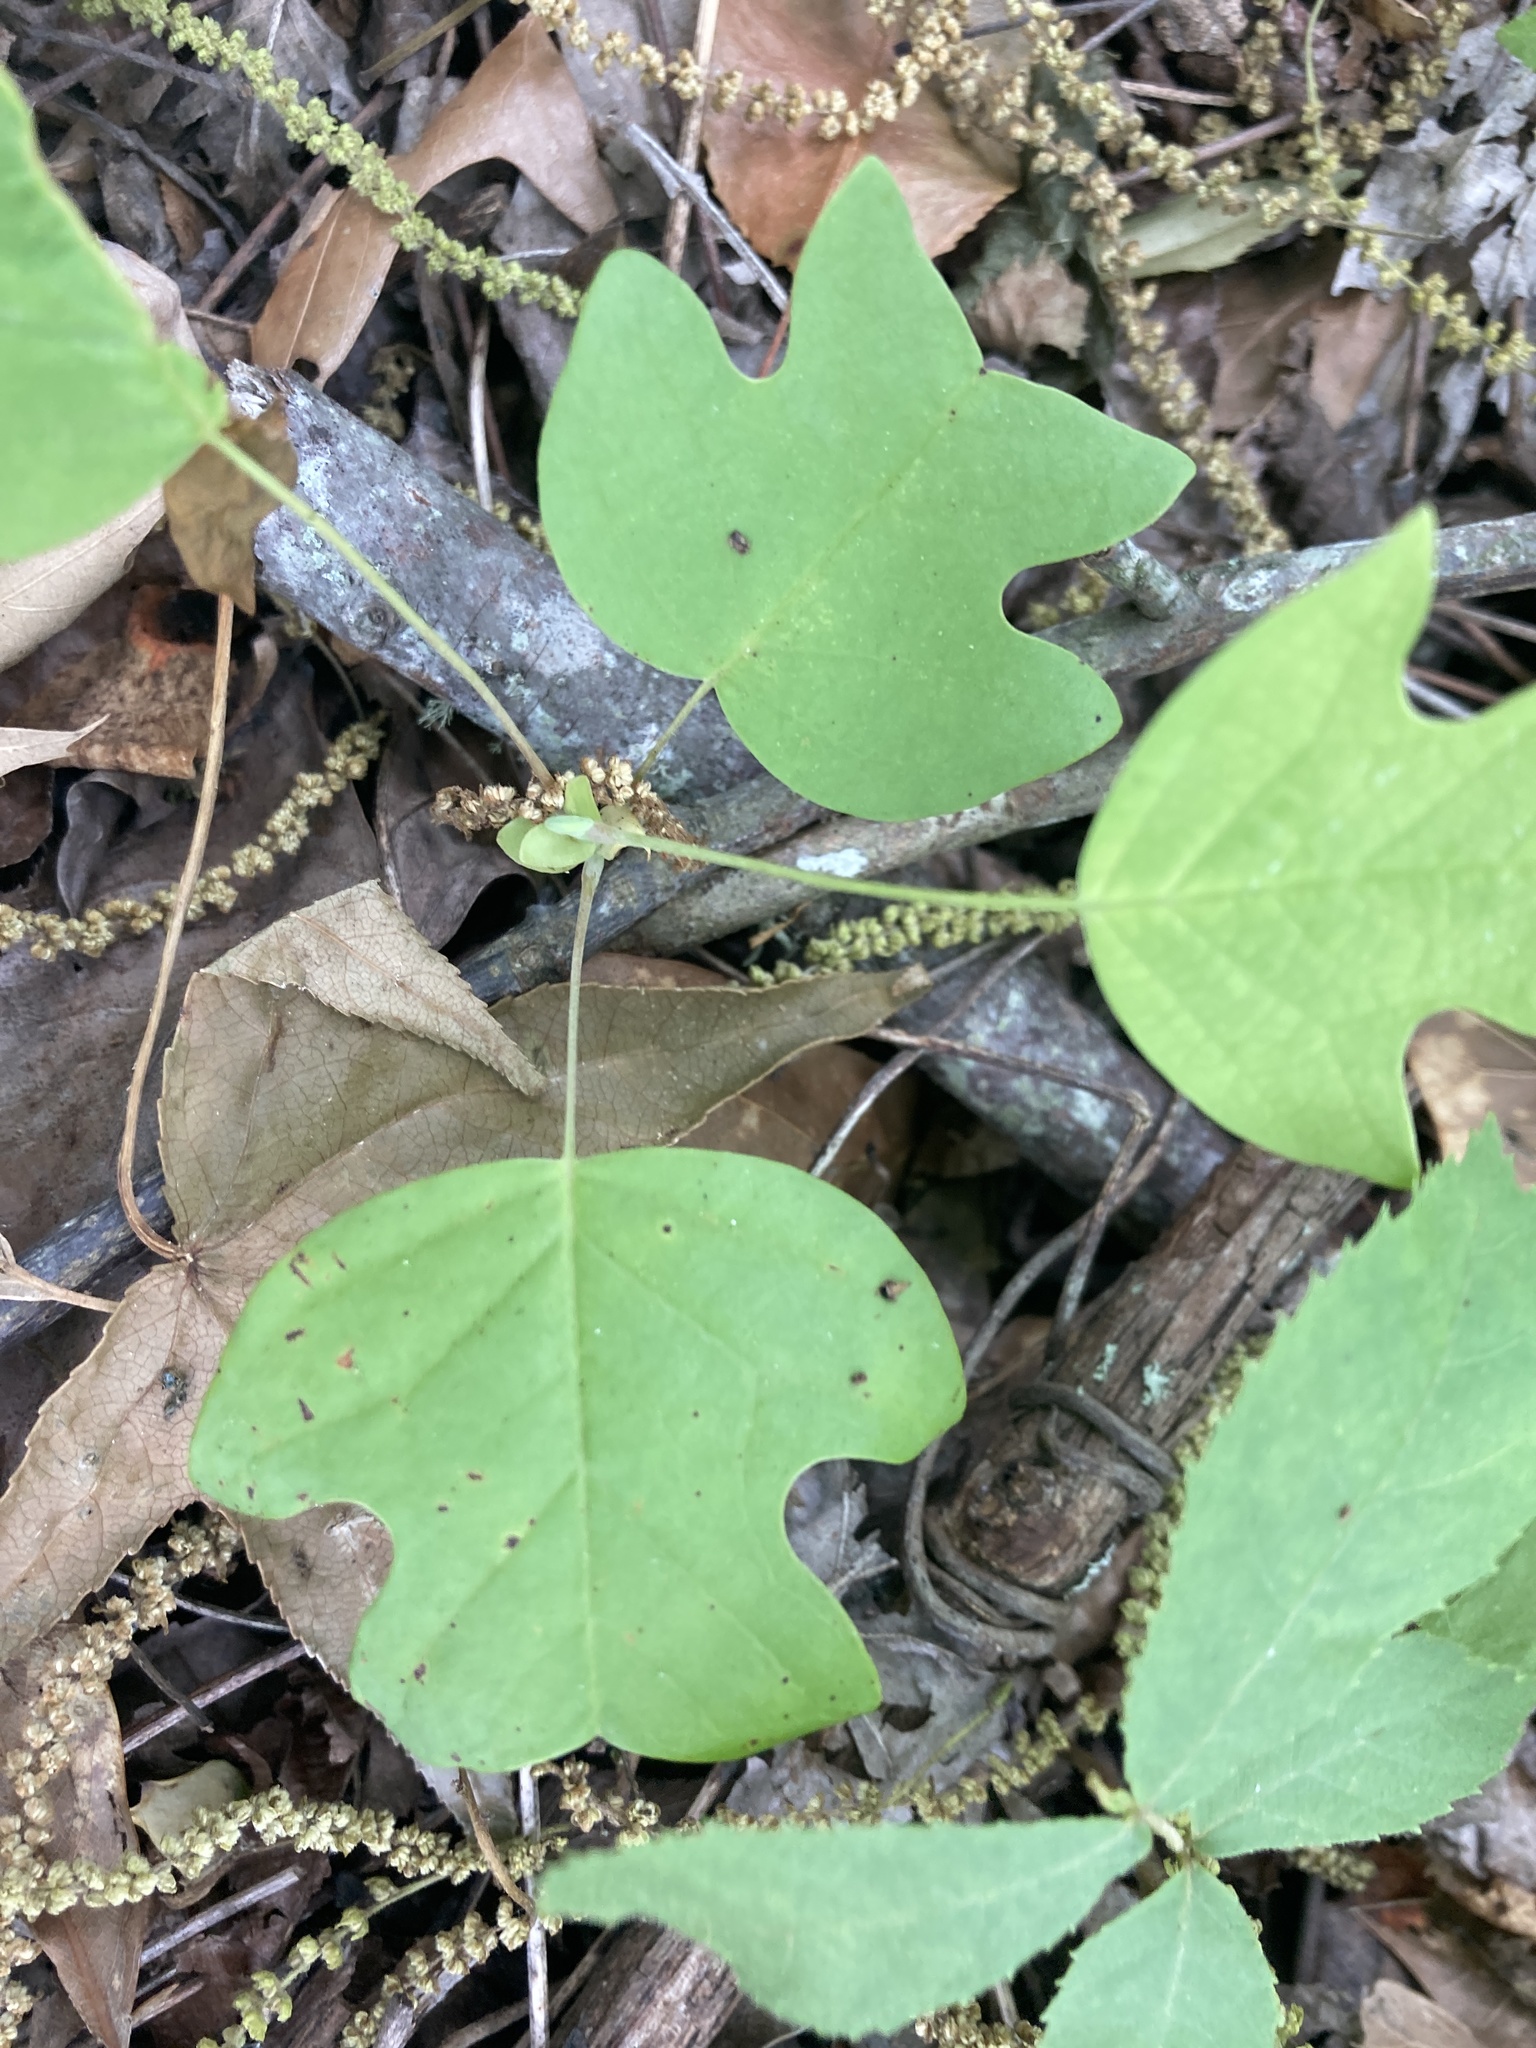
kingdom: Plantae
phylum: Tracheophyta
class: Magnoliopsida
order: Magnoliales
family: Magnoliaceae
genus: Liriodendron
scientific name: Liriodendron tulipifera
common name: Tulip tree
